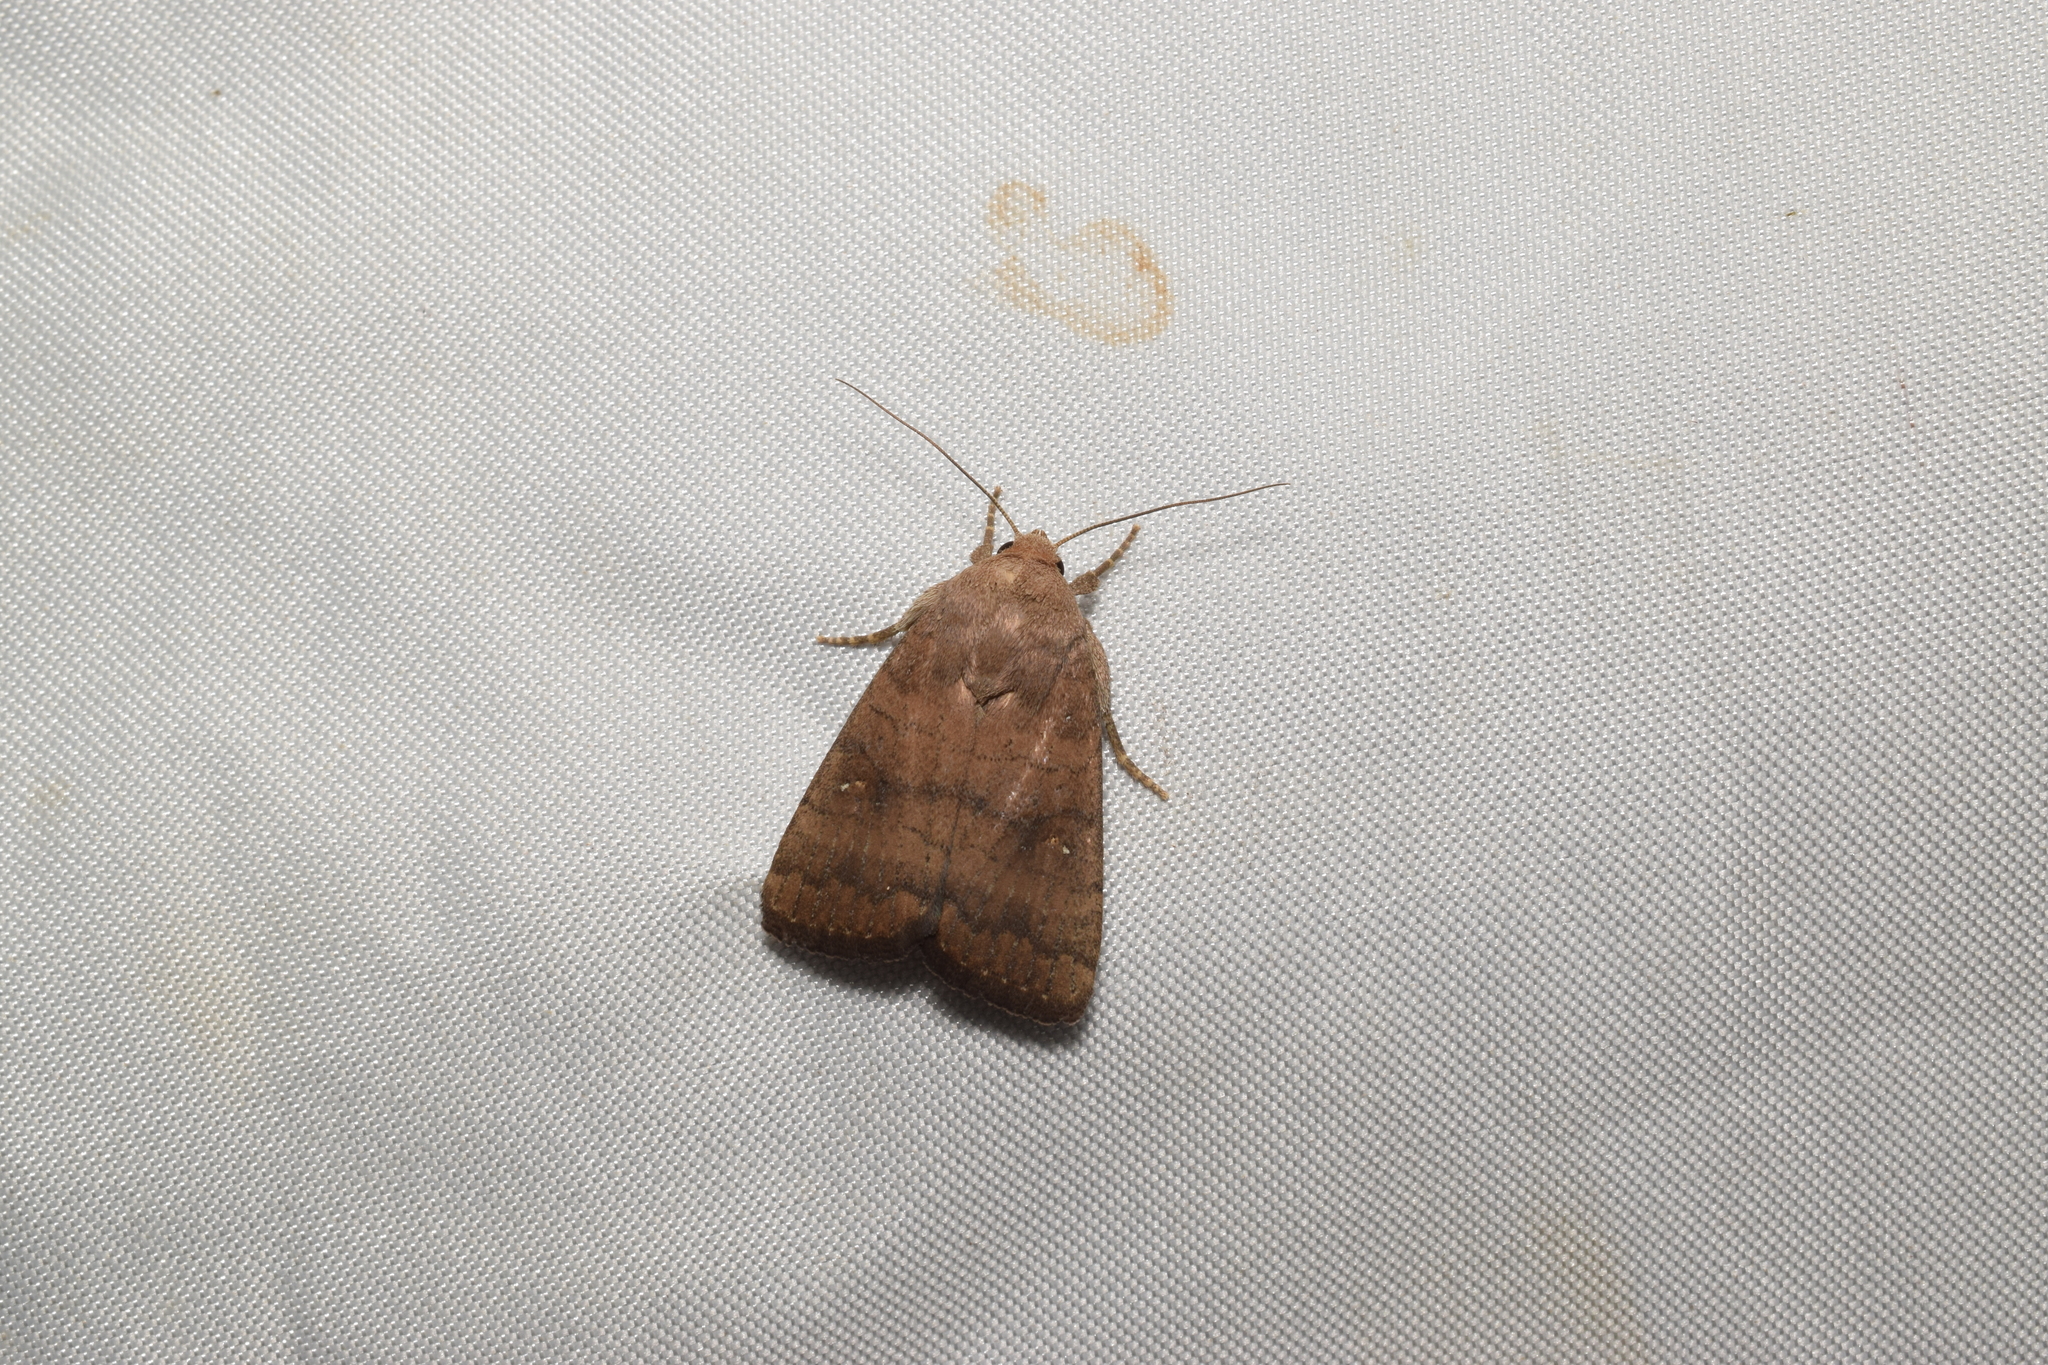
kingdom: Animalia
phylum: Arthropoda
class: Insecta
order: Lepidoptera
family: Noctuidae
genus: Athetis
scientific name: Athetis stellata
